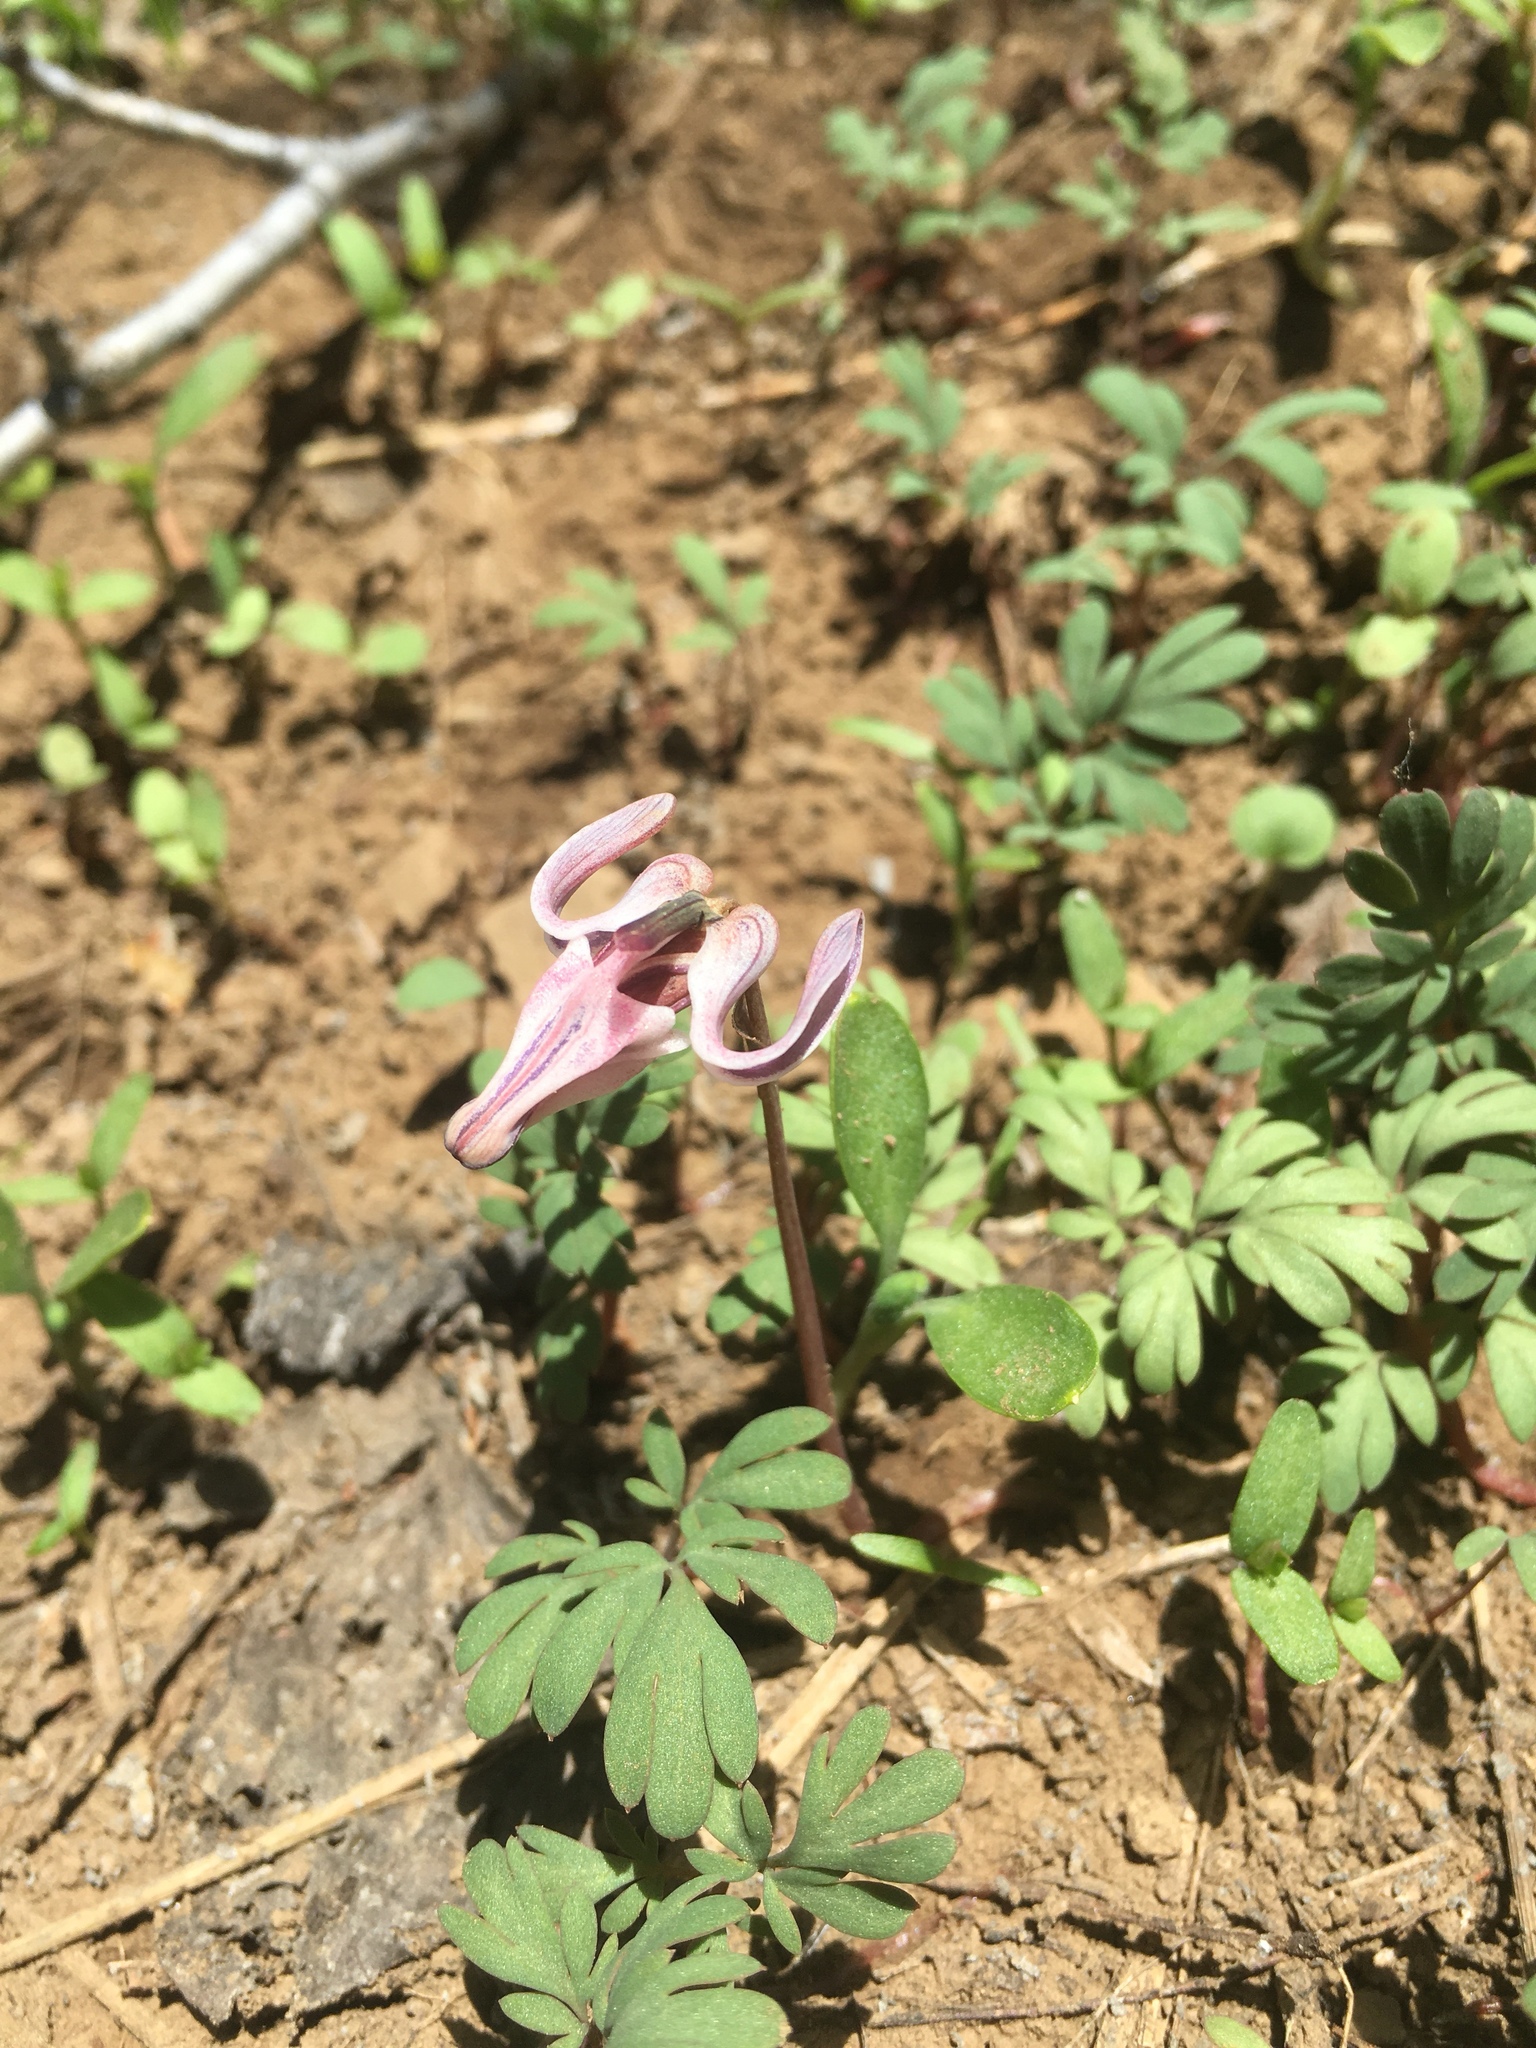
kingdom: Plantae
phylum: Tracheophyta
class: Magnoliopsida
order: Ranunculales
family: Papaveraceae
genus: Dicentra
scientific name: Dicentra uniflora
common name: Steer's-head
